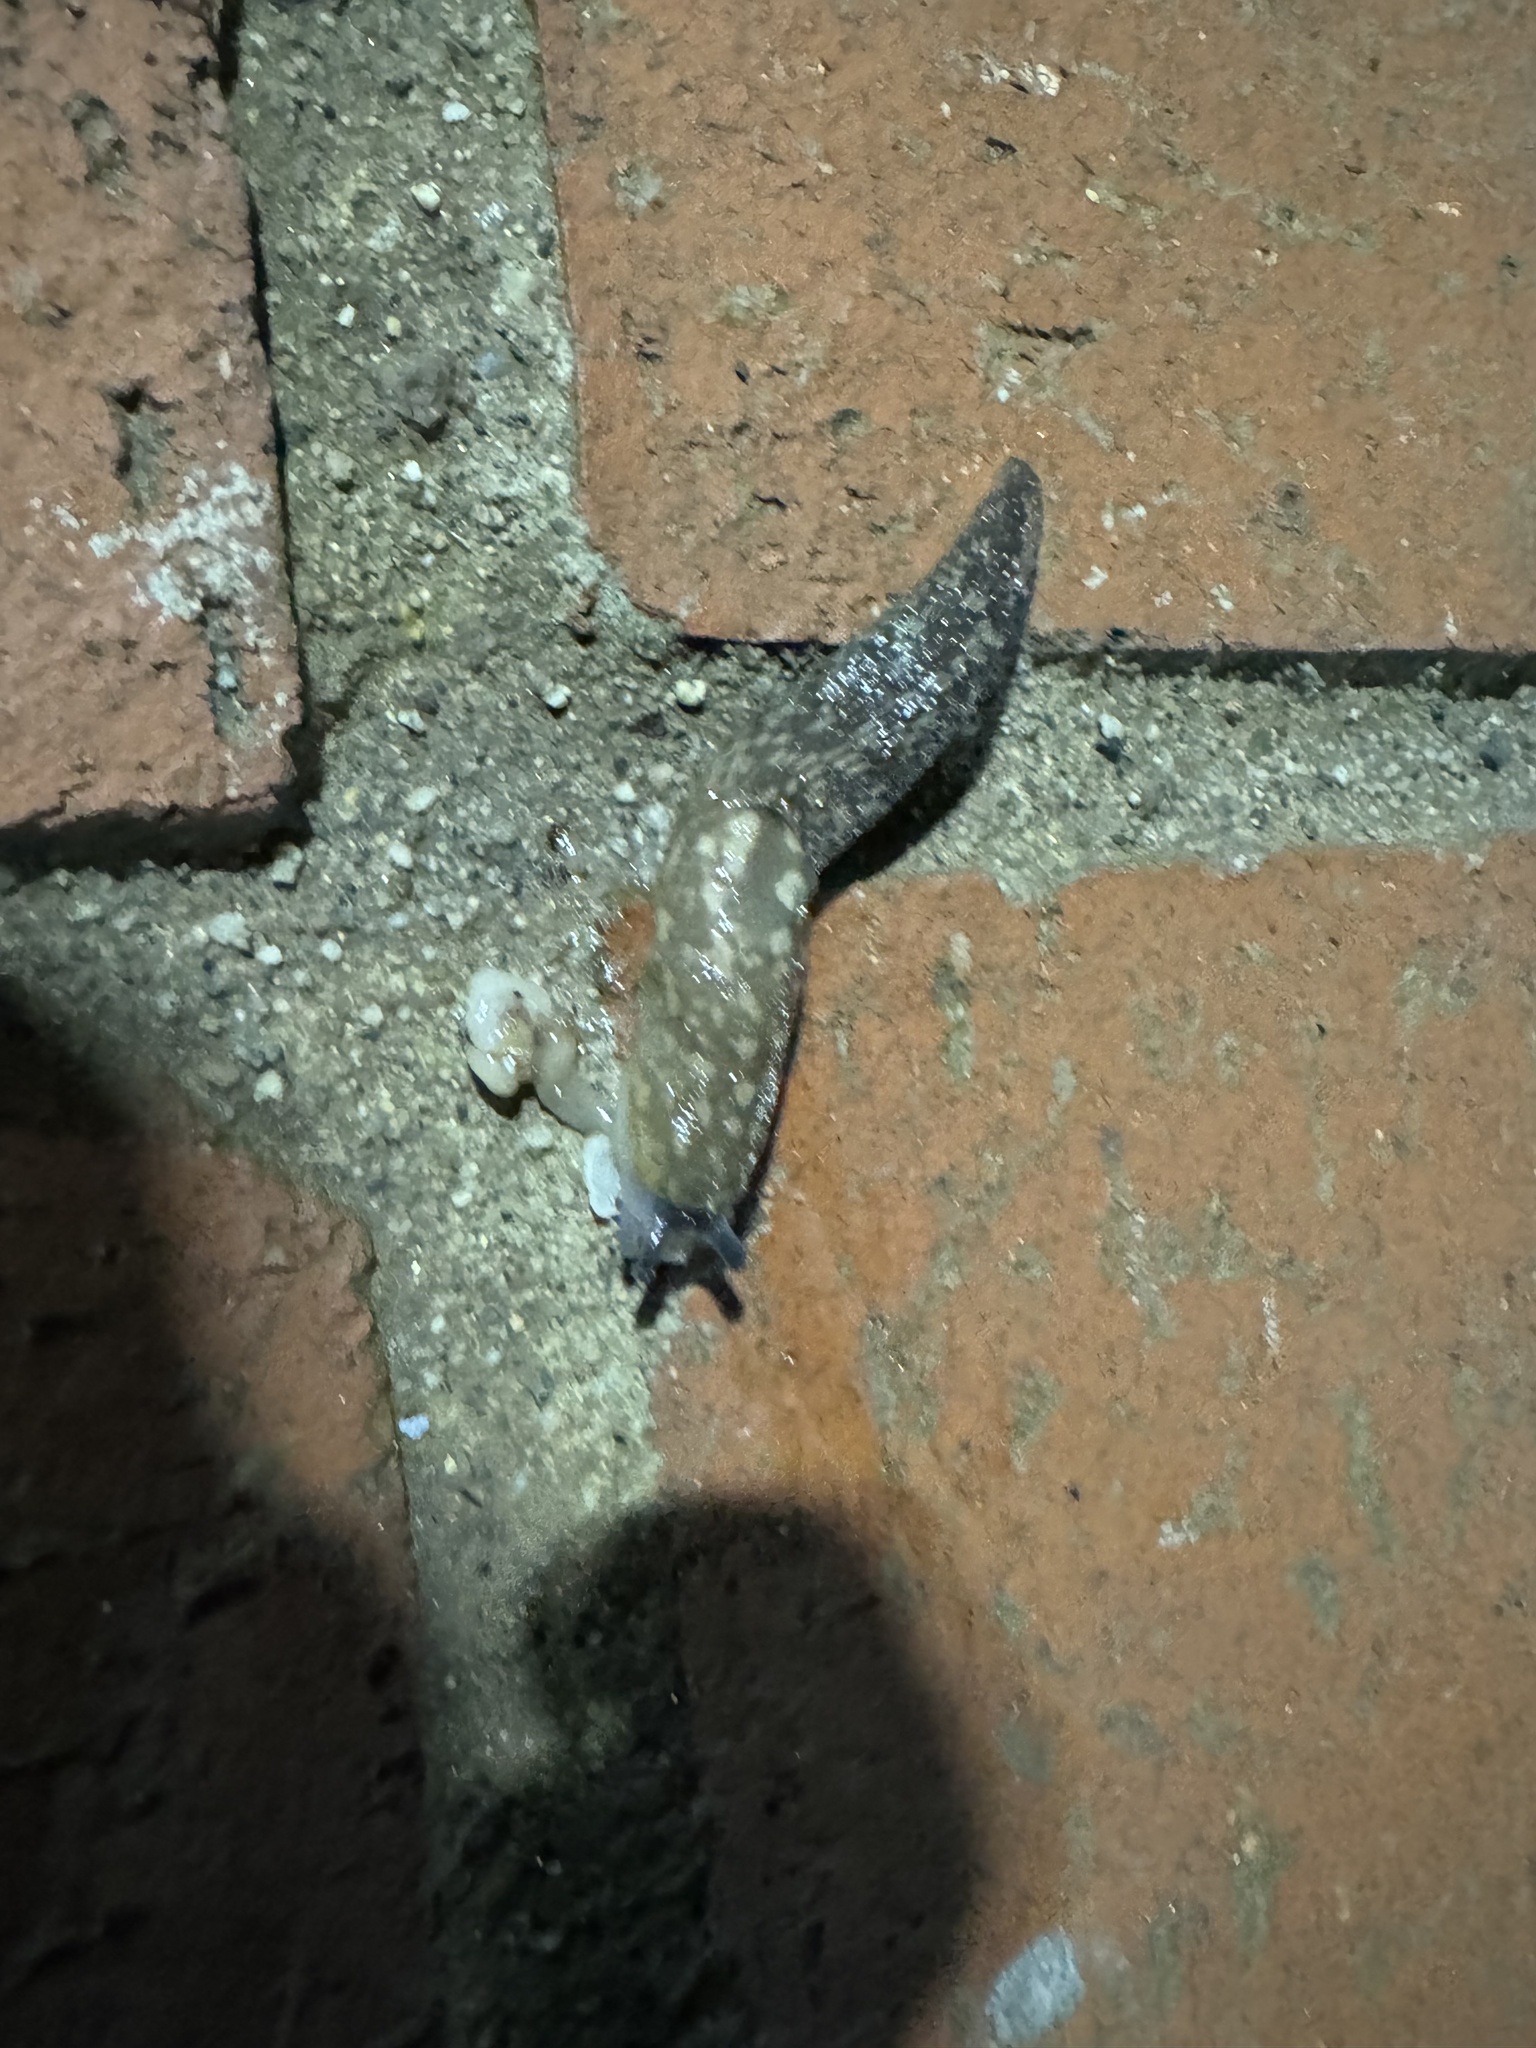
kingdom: Animalia
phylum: Mollusca
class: Gastropoda
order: Stylommatophora
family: Limacidae
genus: Limacus
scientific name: Limacus flavus
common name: Yellow gardenslug
